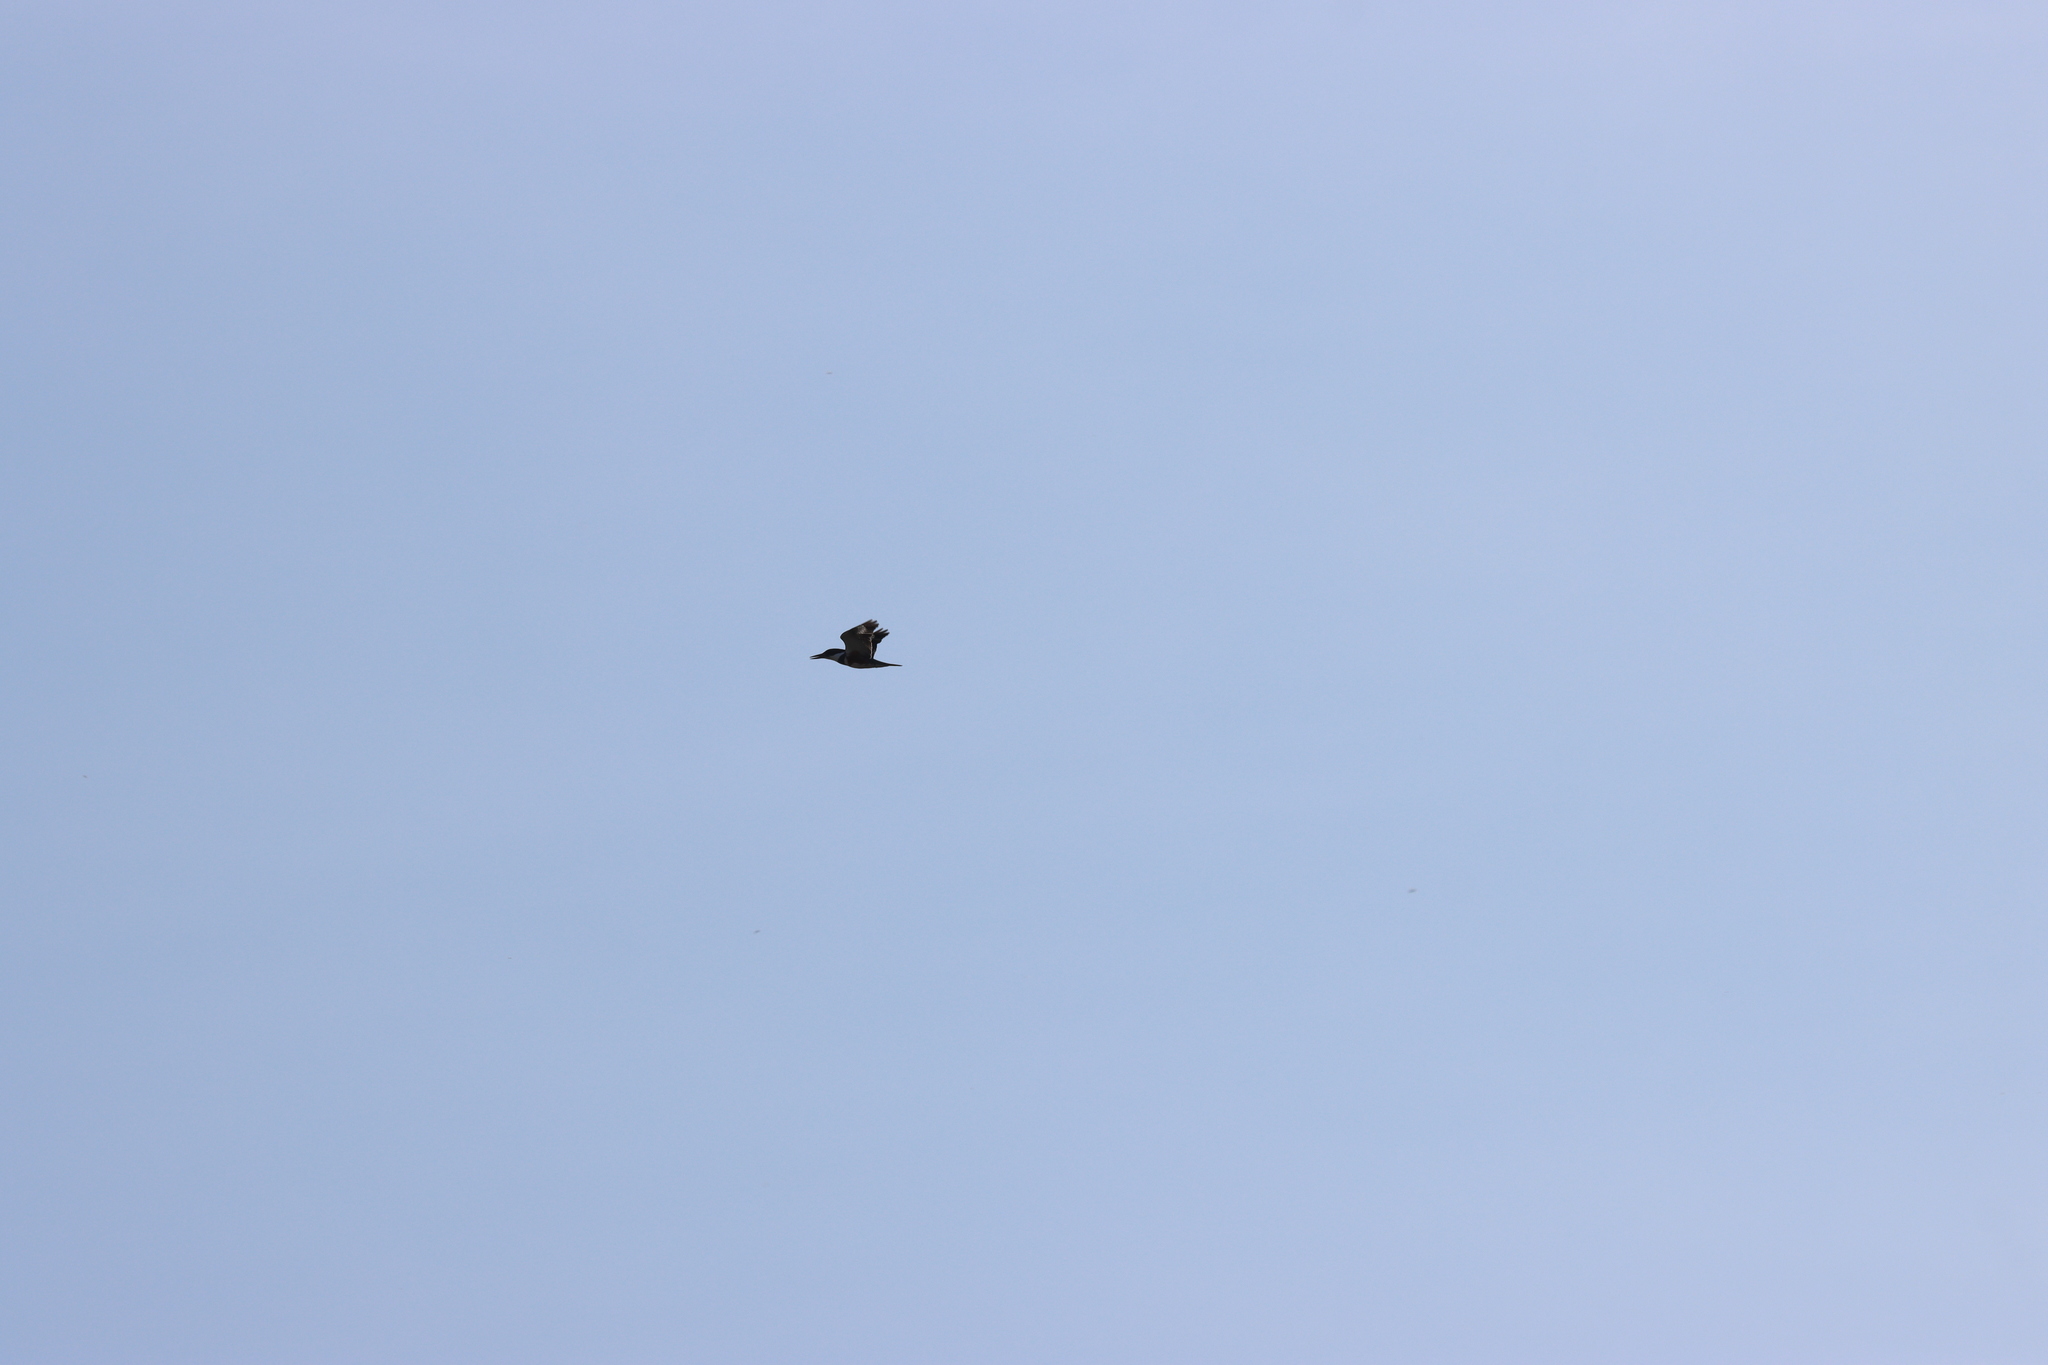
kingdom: Animalia
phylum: Chordata
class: Aves
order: Coraciiformes
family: Alcedinidae
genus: Megaceryle
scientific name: Megaceryle alcyon
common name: Belted kingfisher
